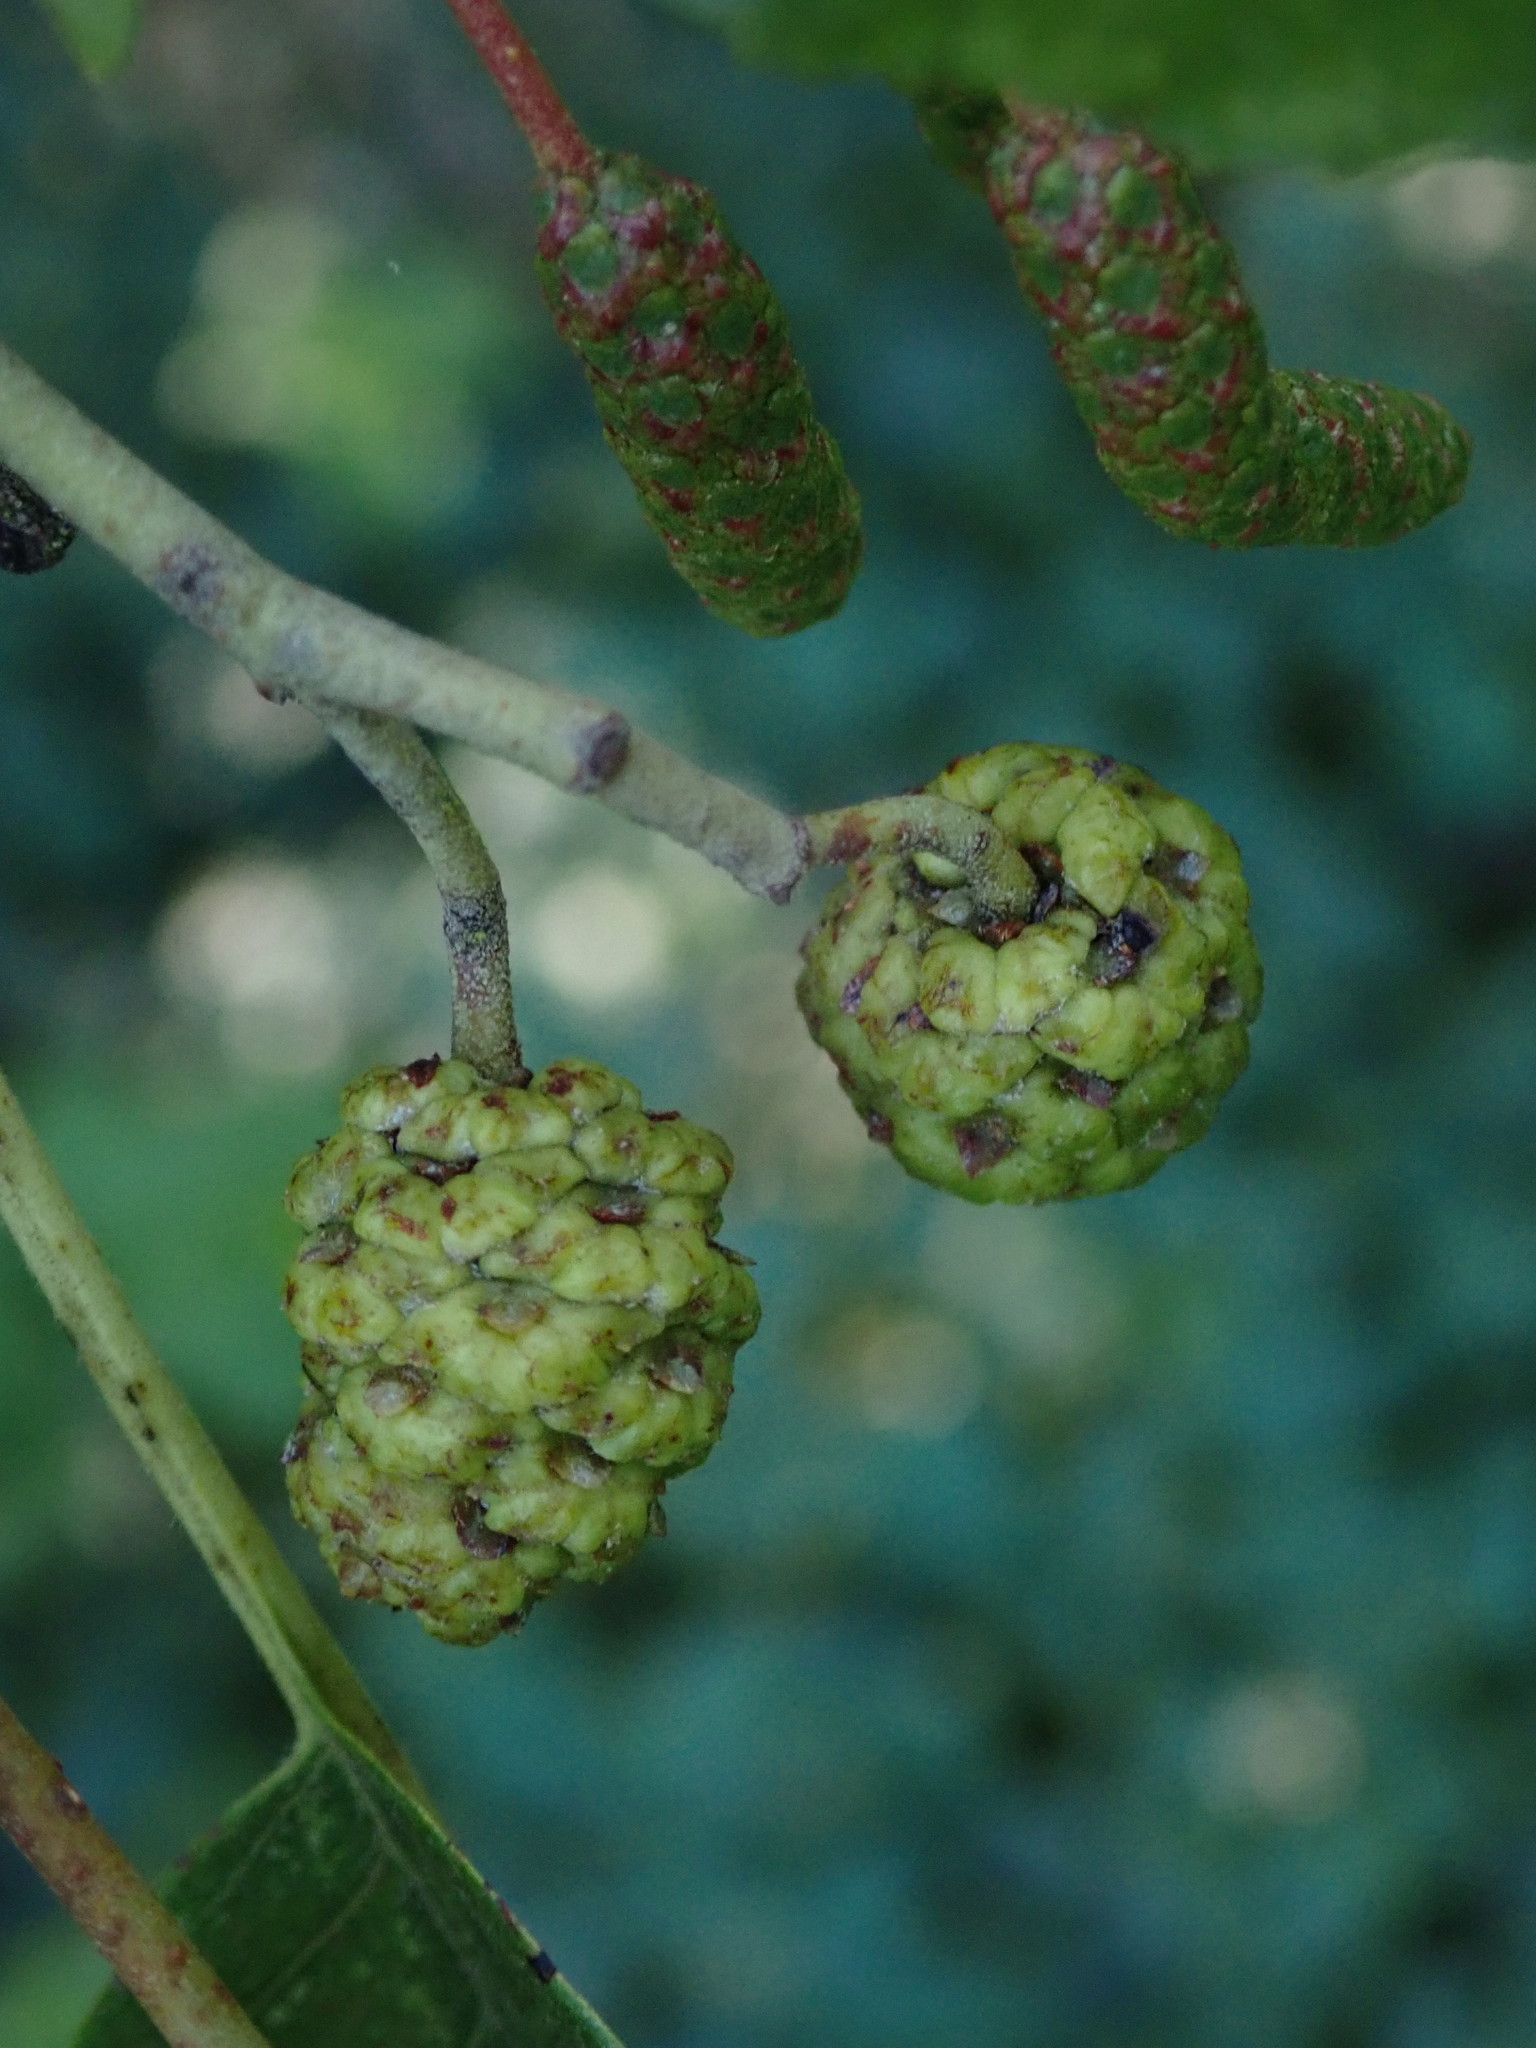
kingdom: Plantae
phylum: Tracheophyta
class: Magnoliopsida
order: Fagales
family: Betulaceae
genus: Alnus
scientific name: Alnus glutinosa
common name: Black alder
